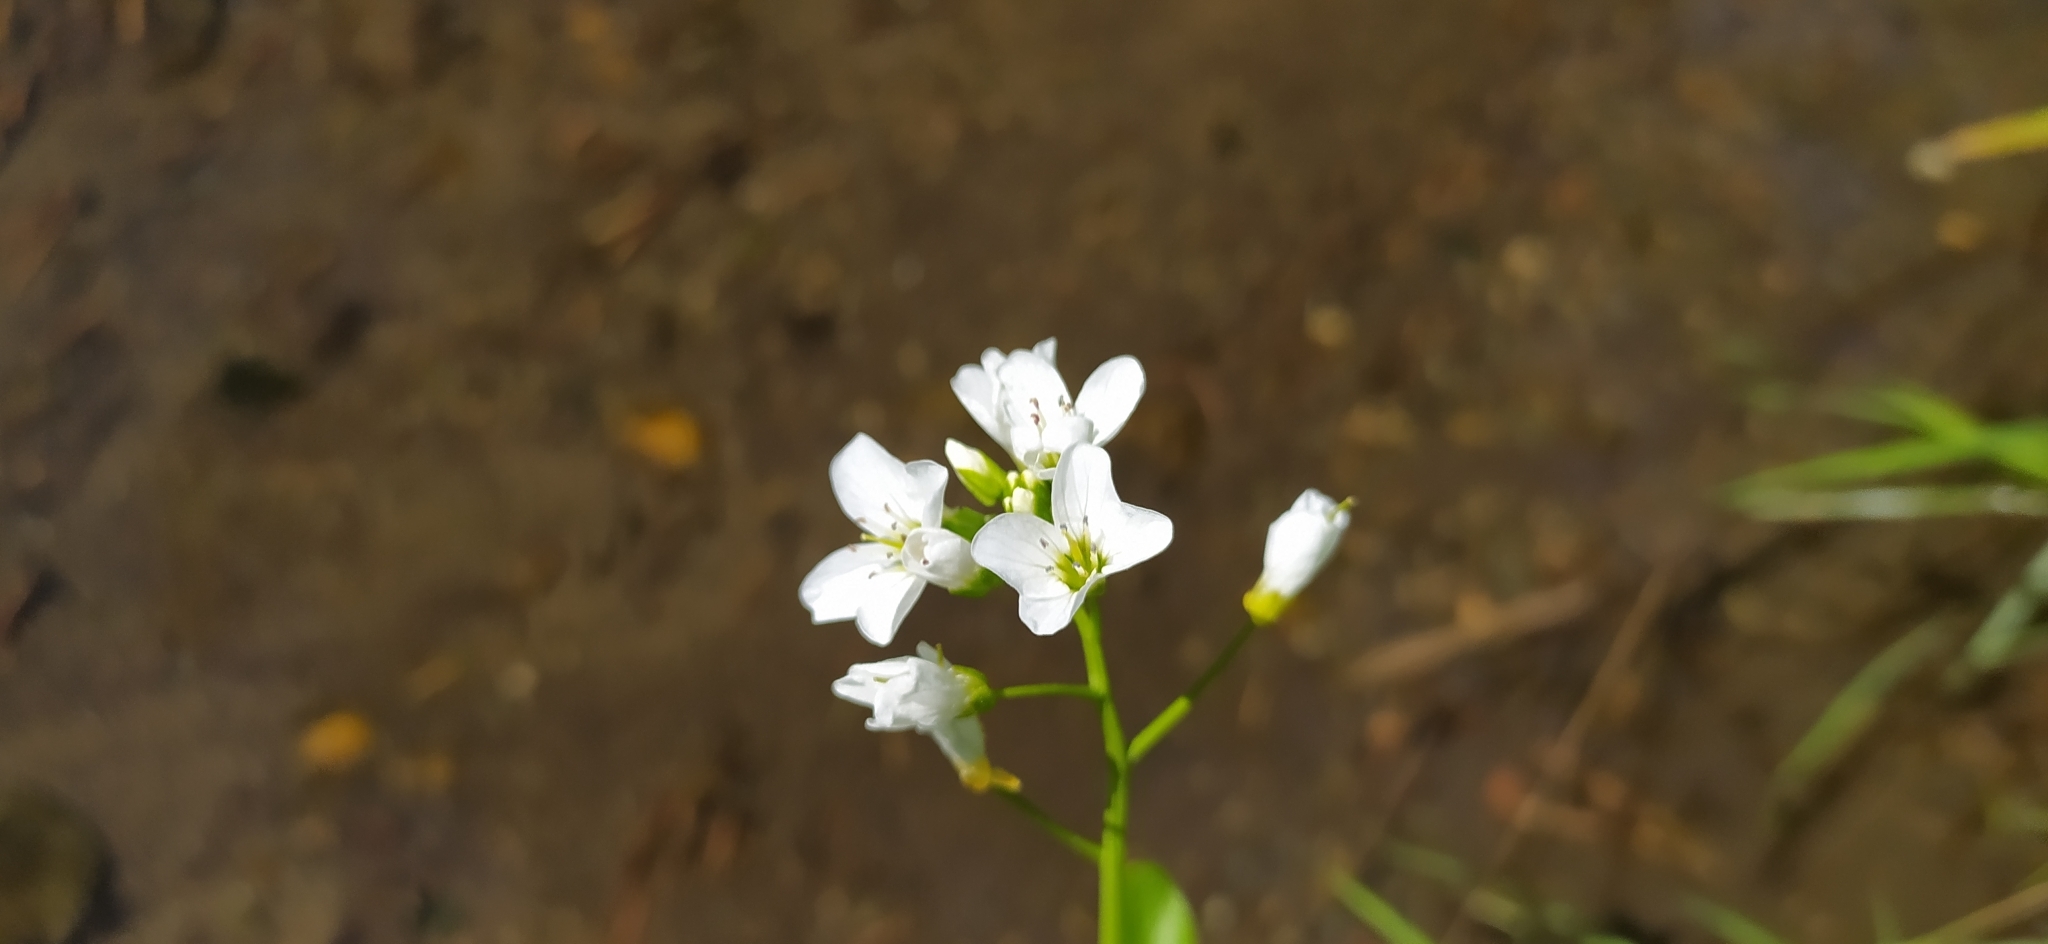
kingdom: Plantae
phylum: Tracheophyta
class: Magnoliopsida
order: Brassicales
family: Brassicaceae
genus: Cardamine
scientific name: Cardamine amara
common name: Large bitter-cress
